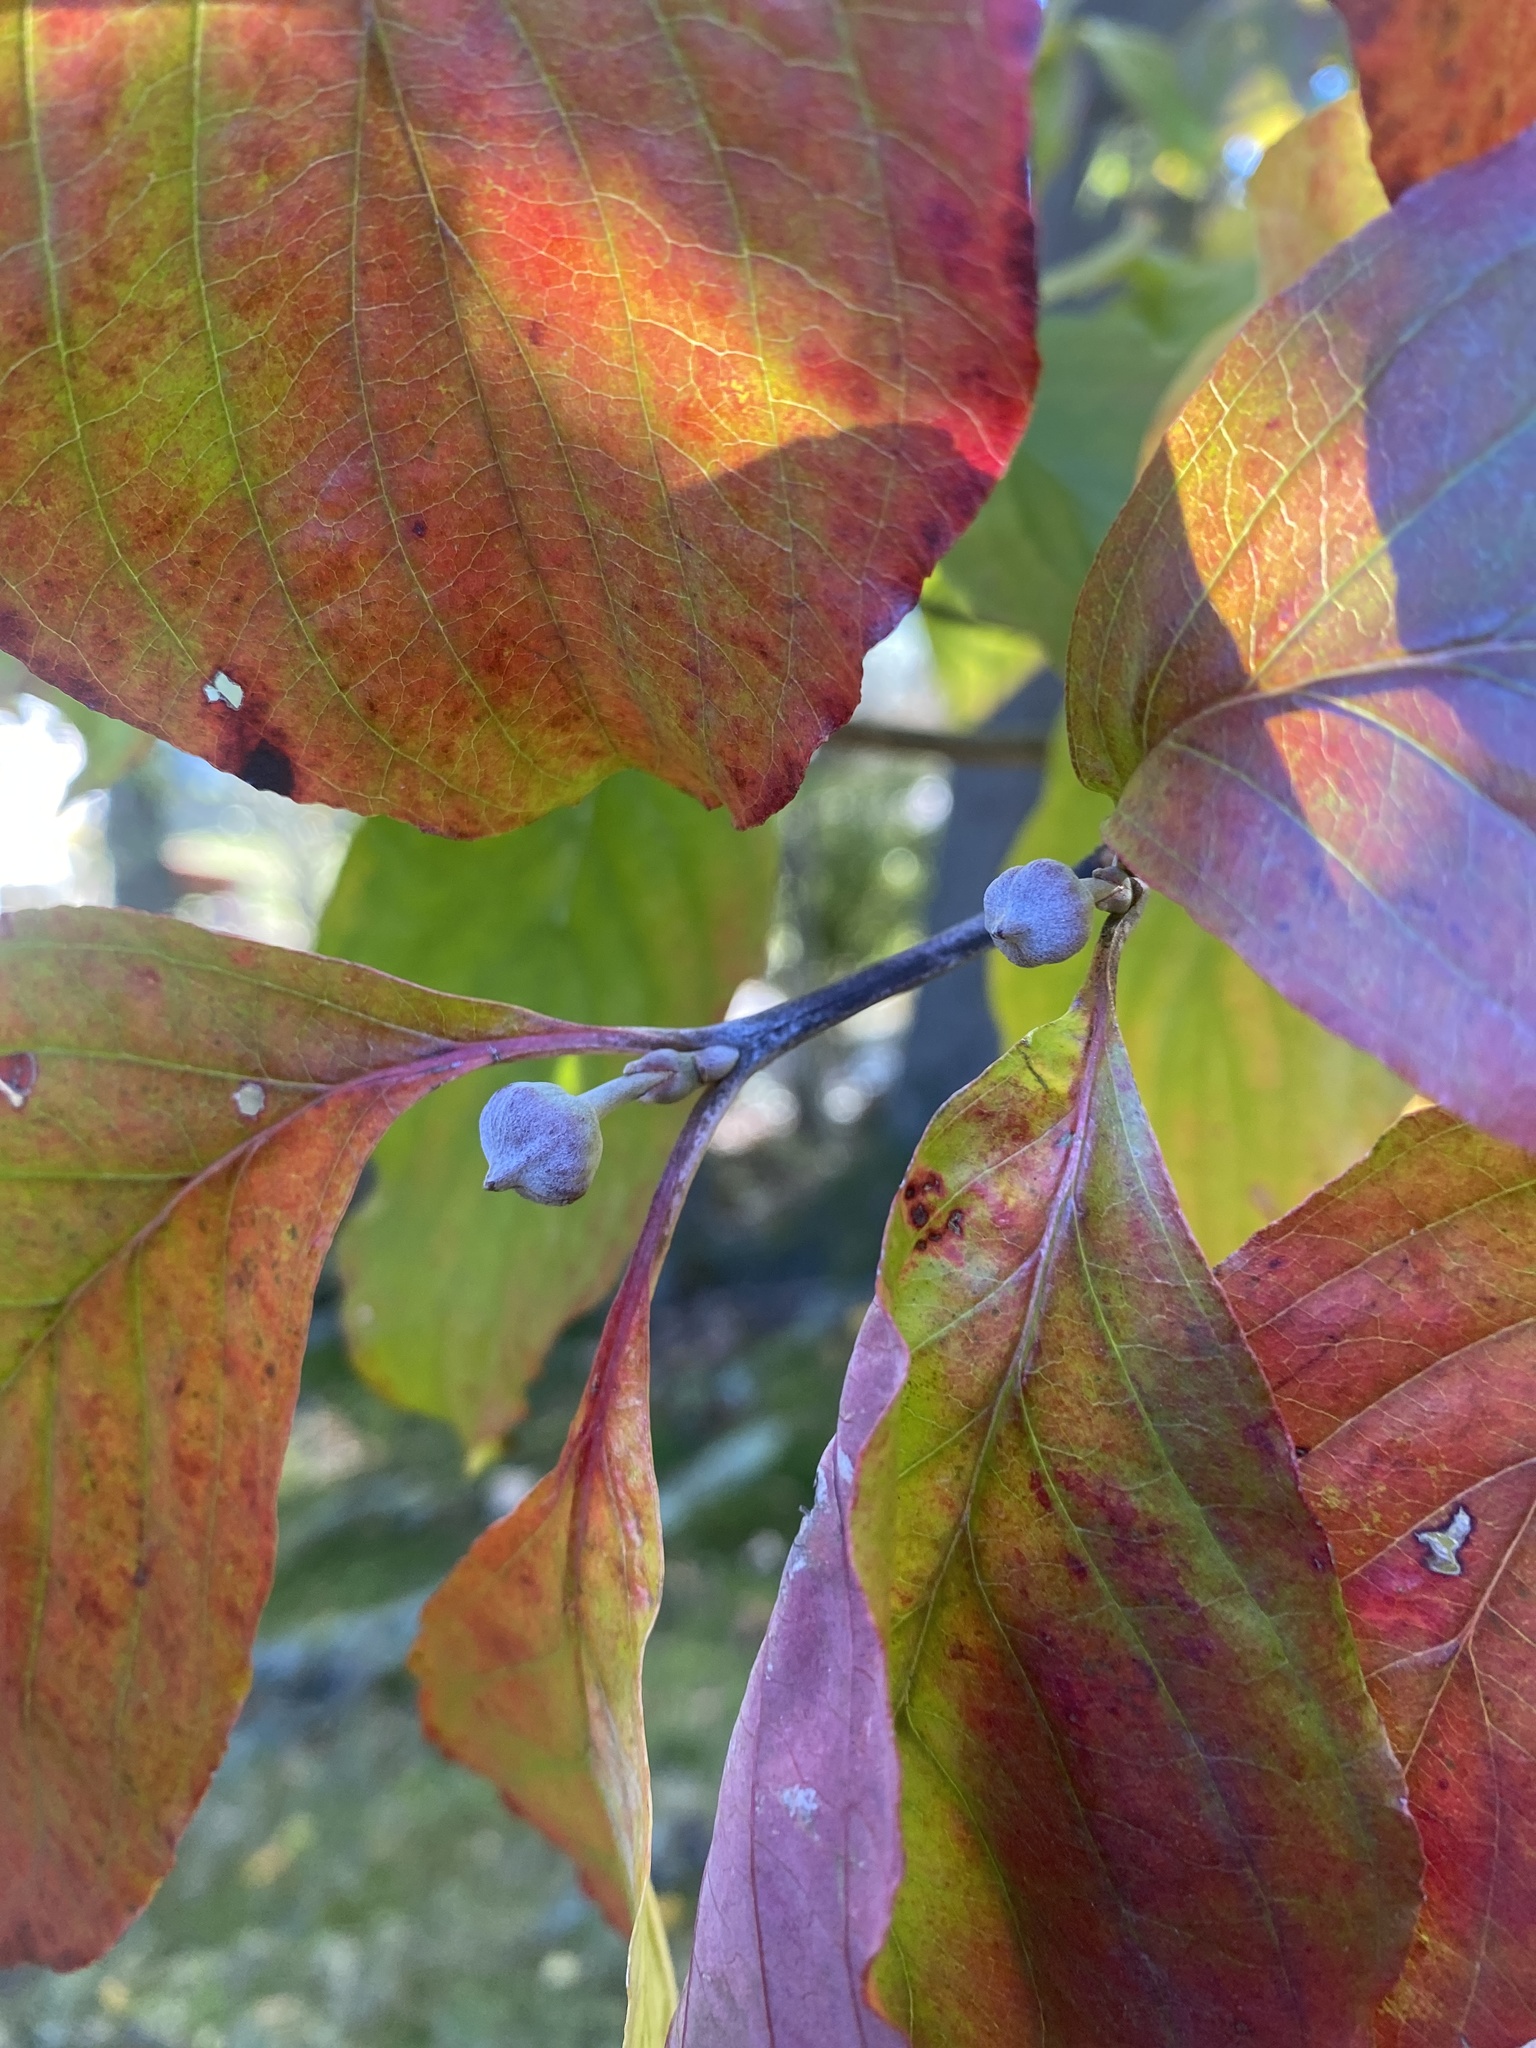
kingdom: Plantae
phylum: Tracheophyta
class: Magnoliopsida
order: Cornales
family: Cornaceae
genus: Cornus
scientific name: Cornus florida
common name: Flowering dogwood
